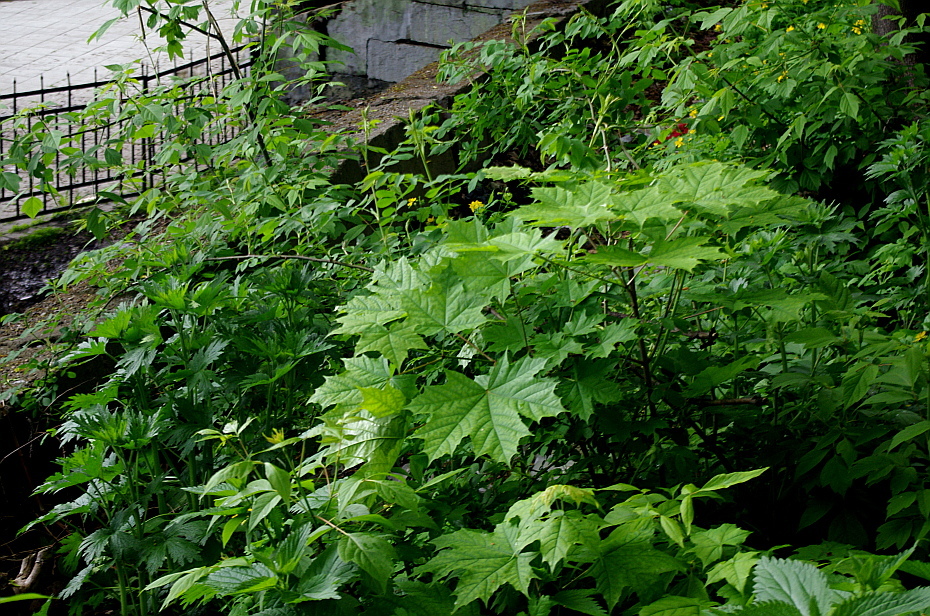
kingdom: Plantae
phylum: Tracheophyta
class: Magnoliopsida
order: Sapindales
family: Sapindaceae
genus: Acer
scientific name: Acer platanoides
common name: Norway maple
